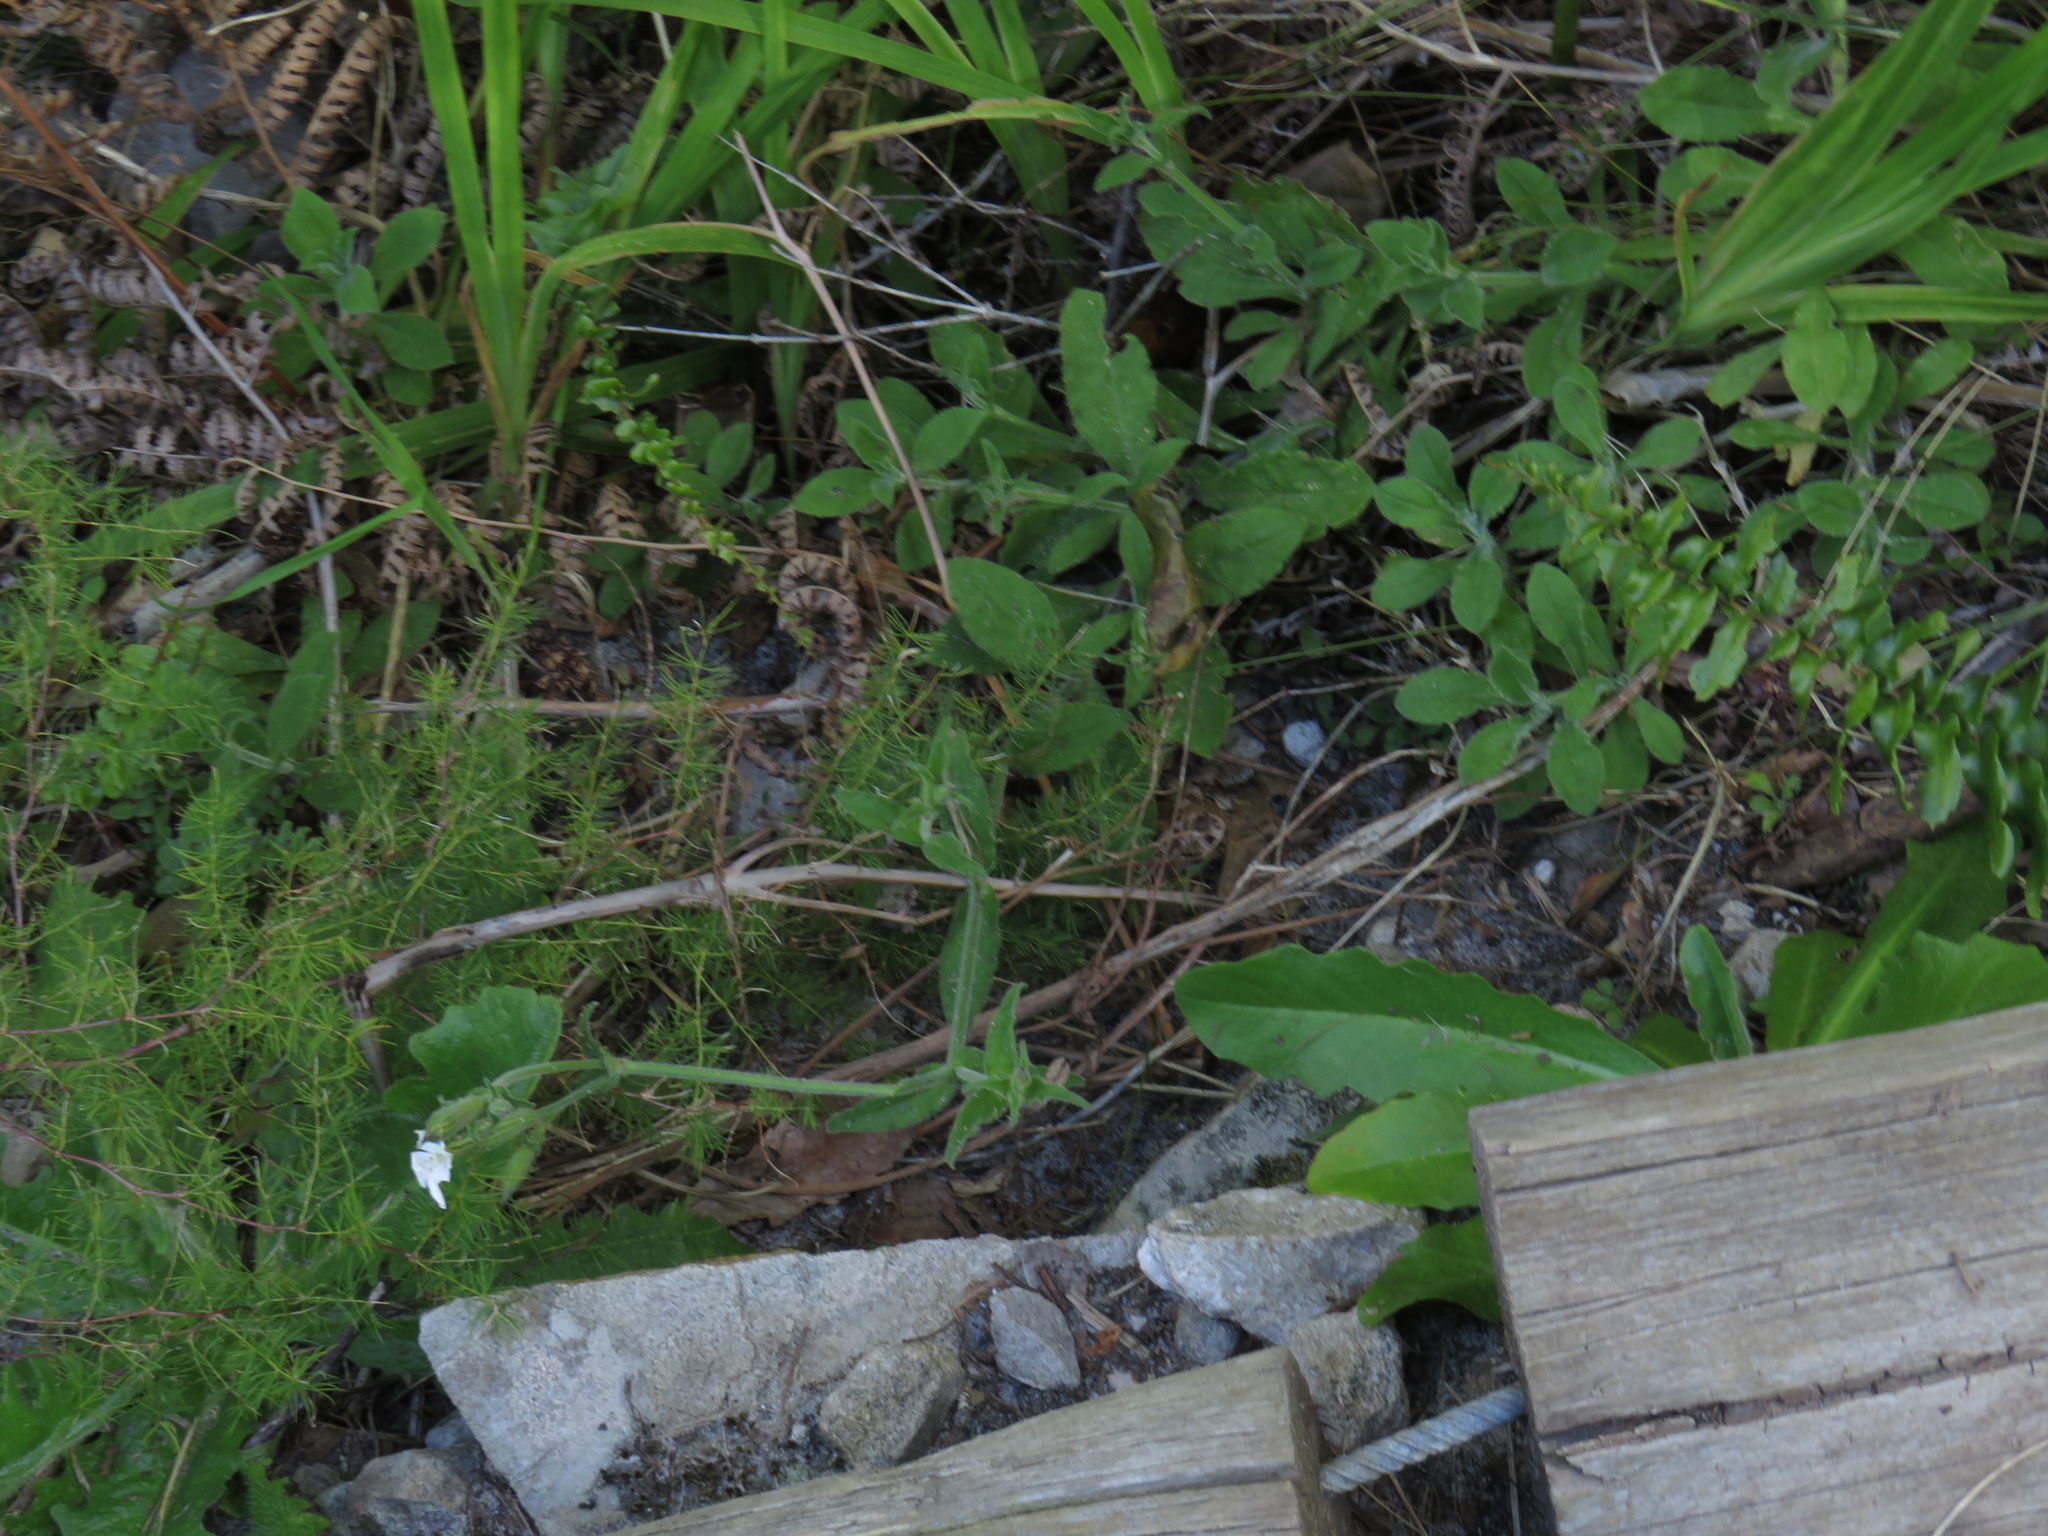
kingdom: Plantae
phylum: Tracheophyta
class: Magnoliopsida
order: Caryophyllales
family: Caryophyllaceae
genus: Silene
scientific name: Silene undulata
